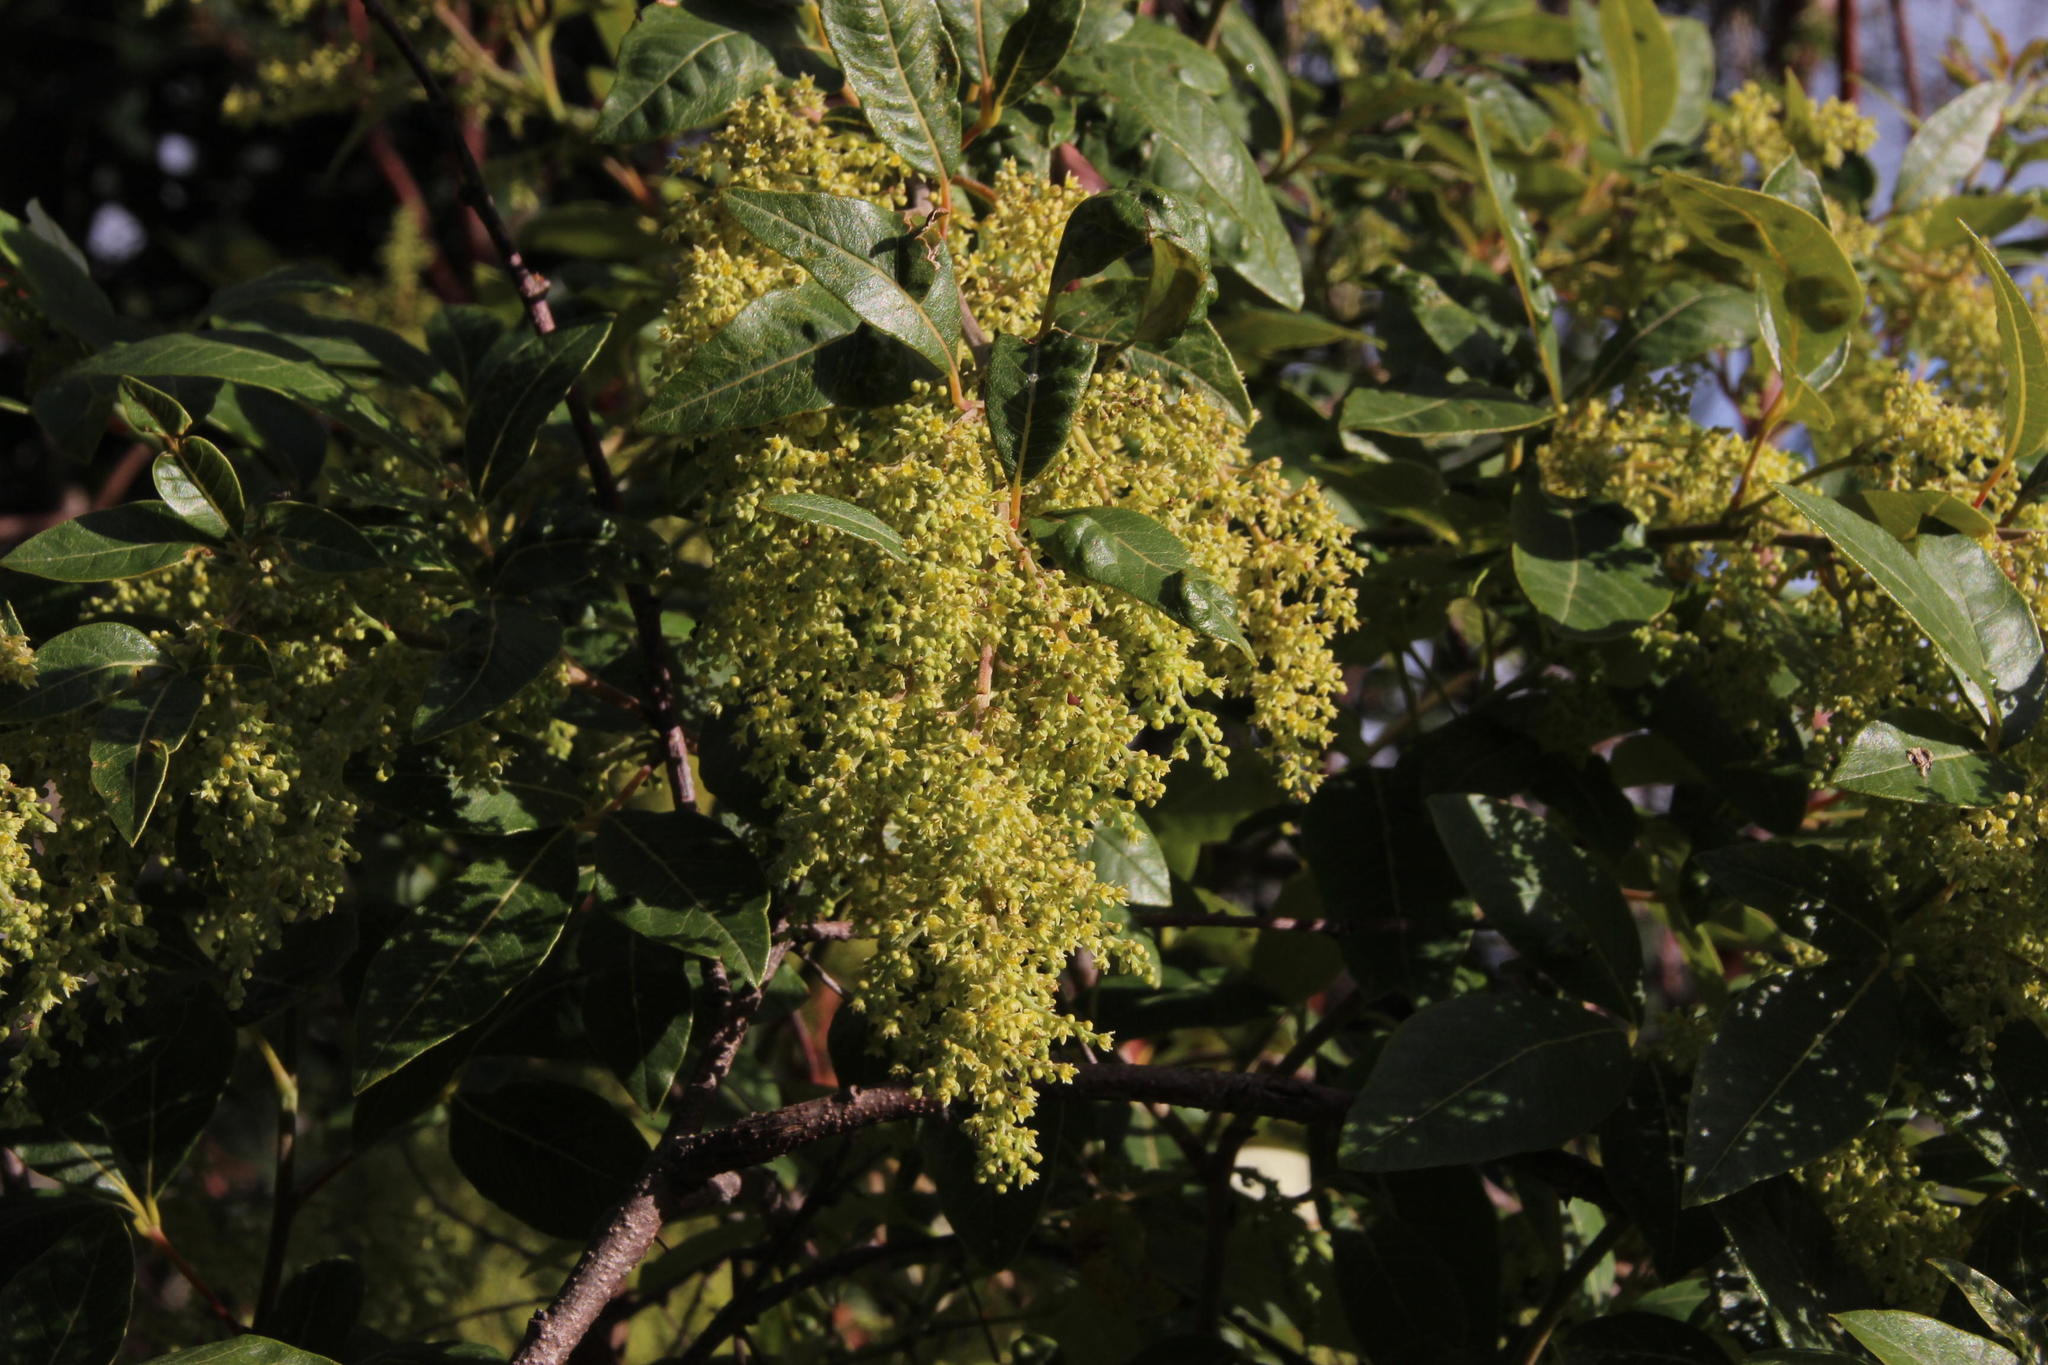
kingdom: Plantae
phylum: Tracheophyta
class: Magnoliopsida
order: Sapindales
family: Anacardiaceae
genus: Searsia
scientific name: Searsia tomentosa
